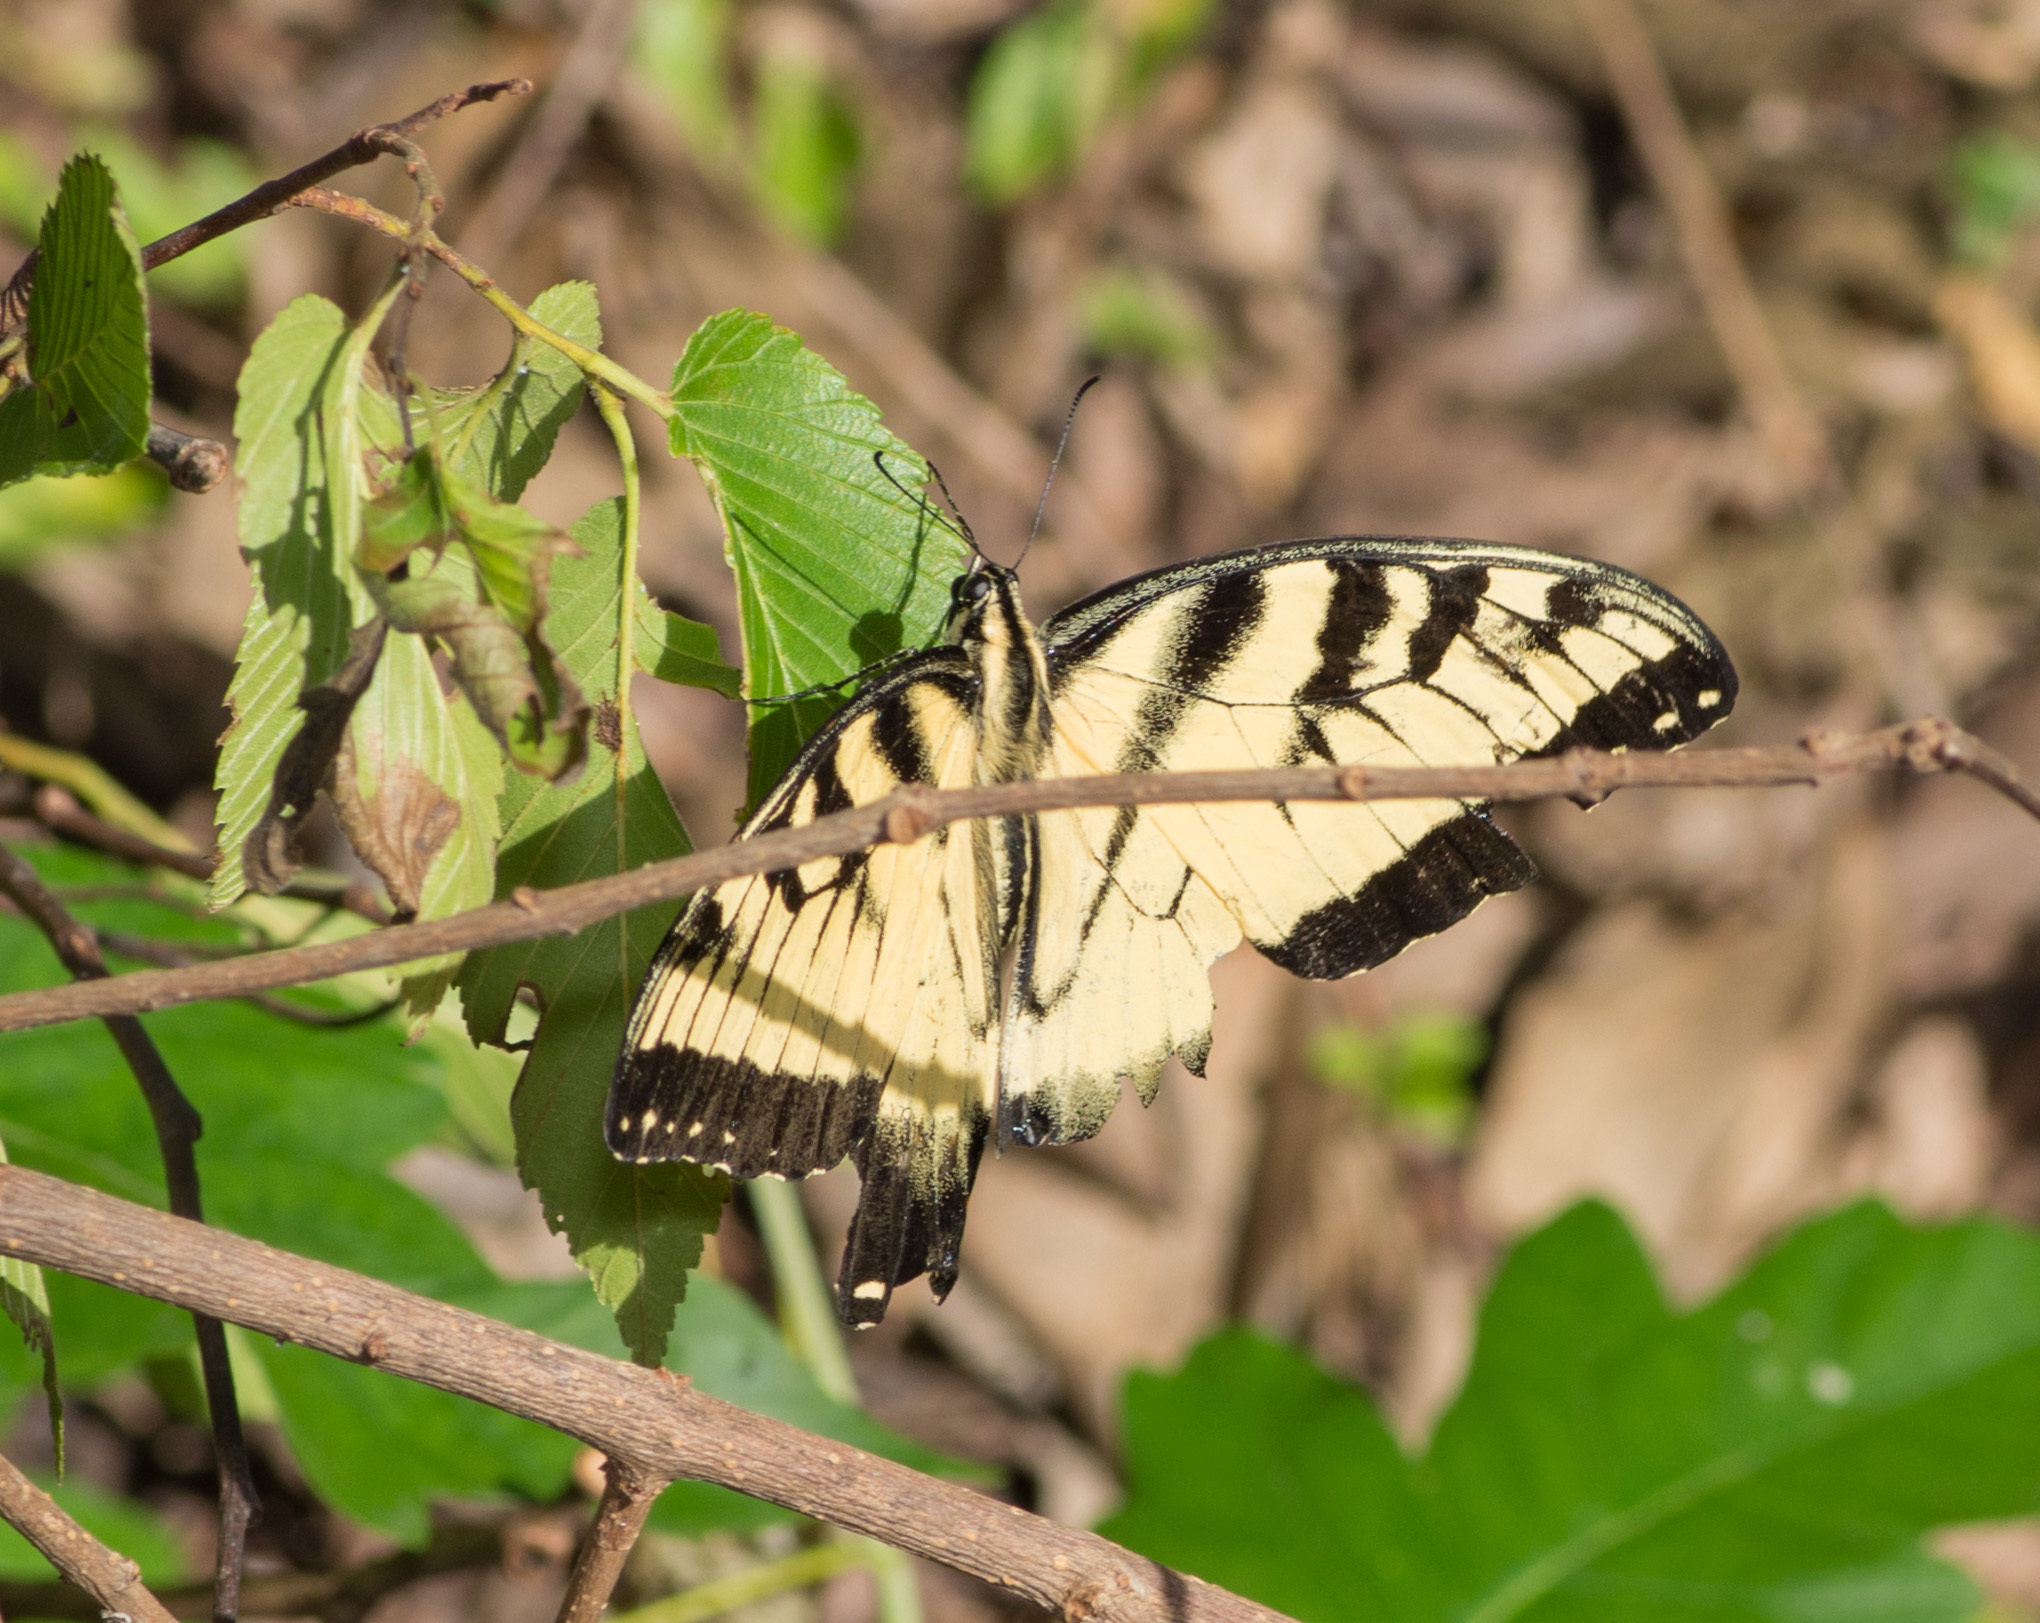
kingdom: Animalia
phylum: Arthropoda
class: Insecta
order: Lepidoptera
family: Papilionidae
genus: Papilio
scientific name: Papilio glaucus
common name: Tiger swallowtail
